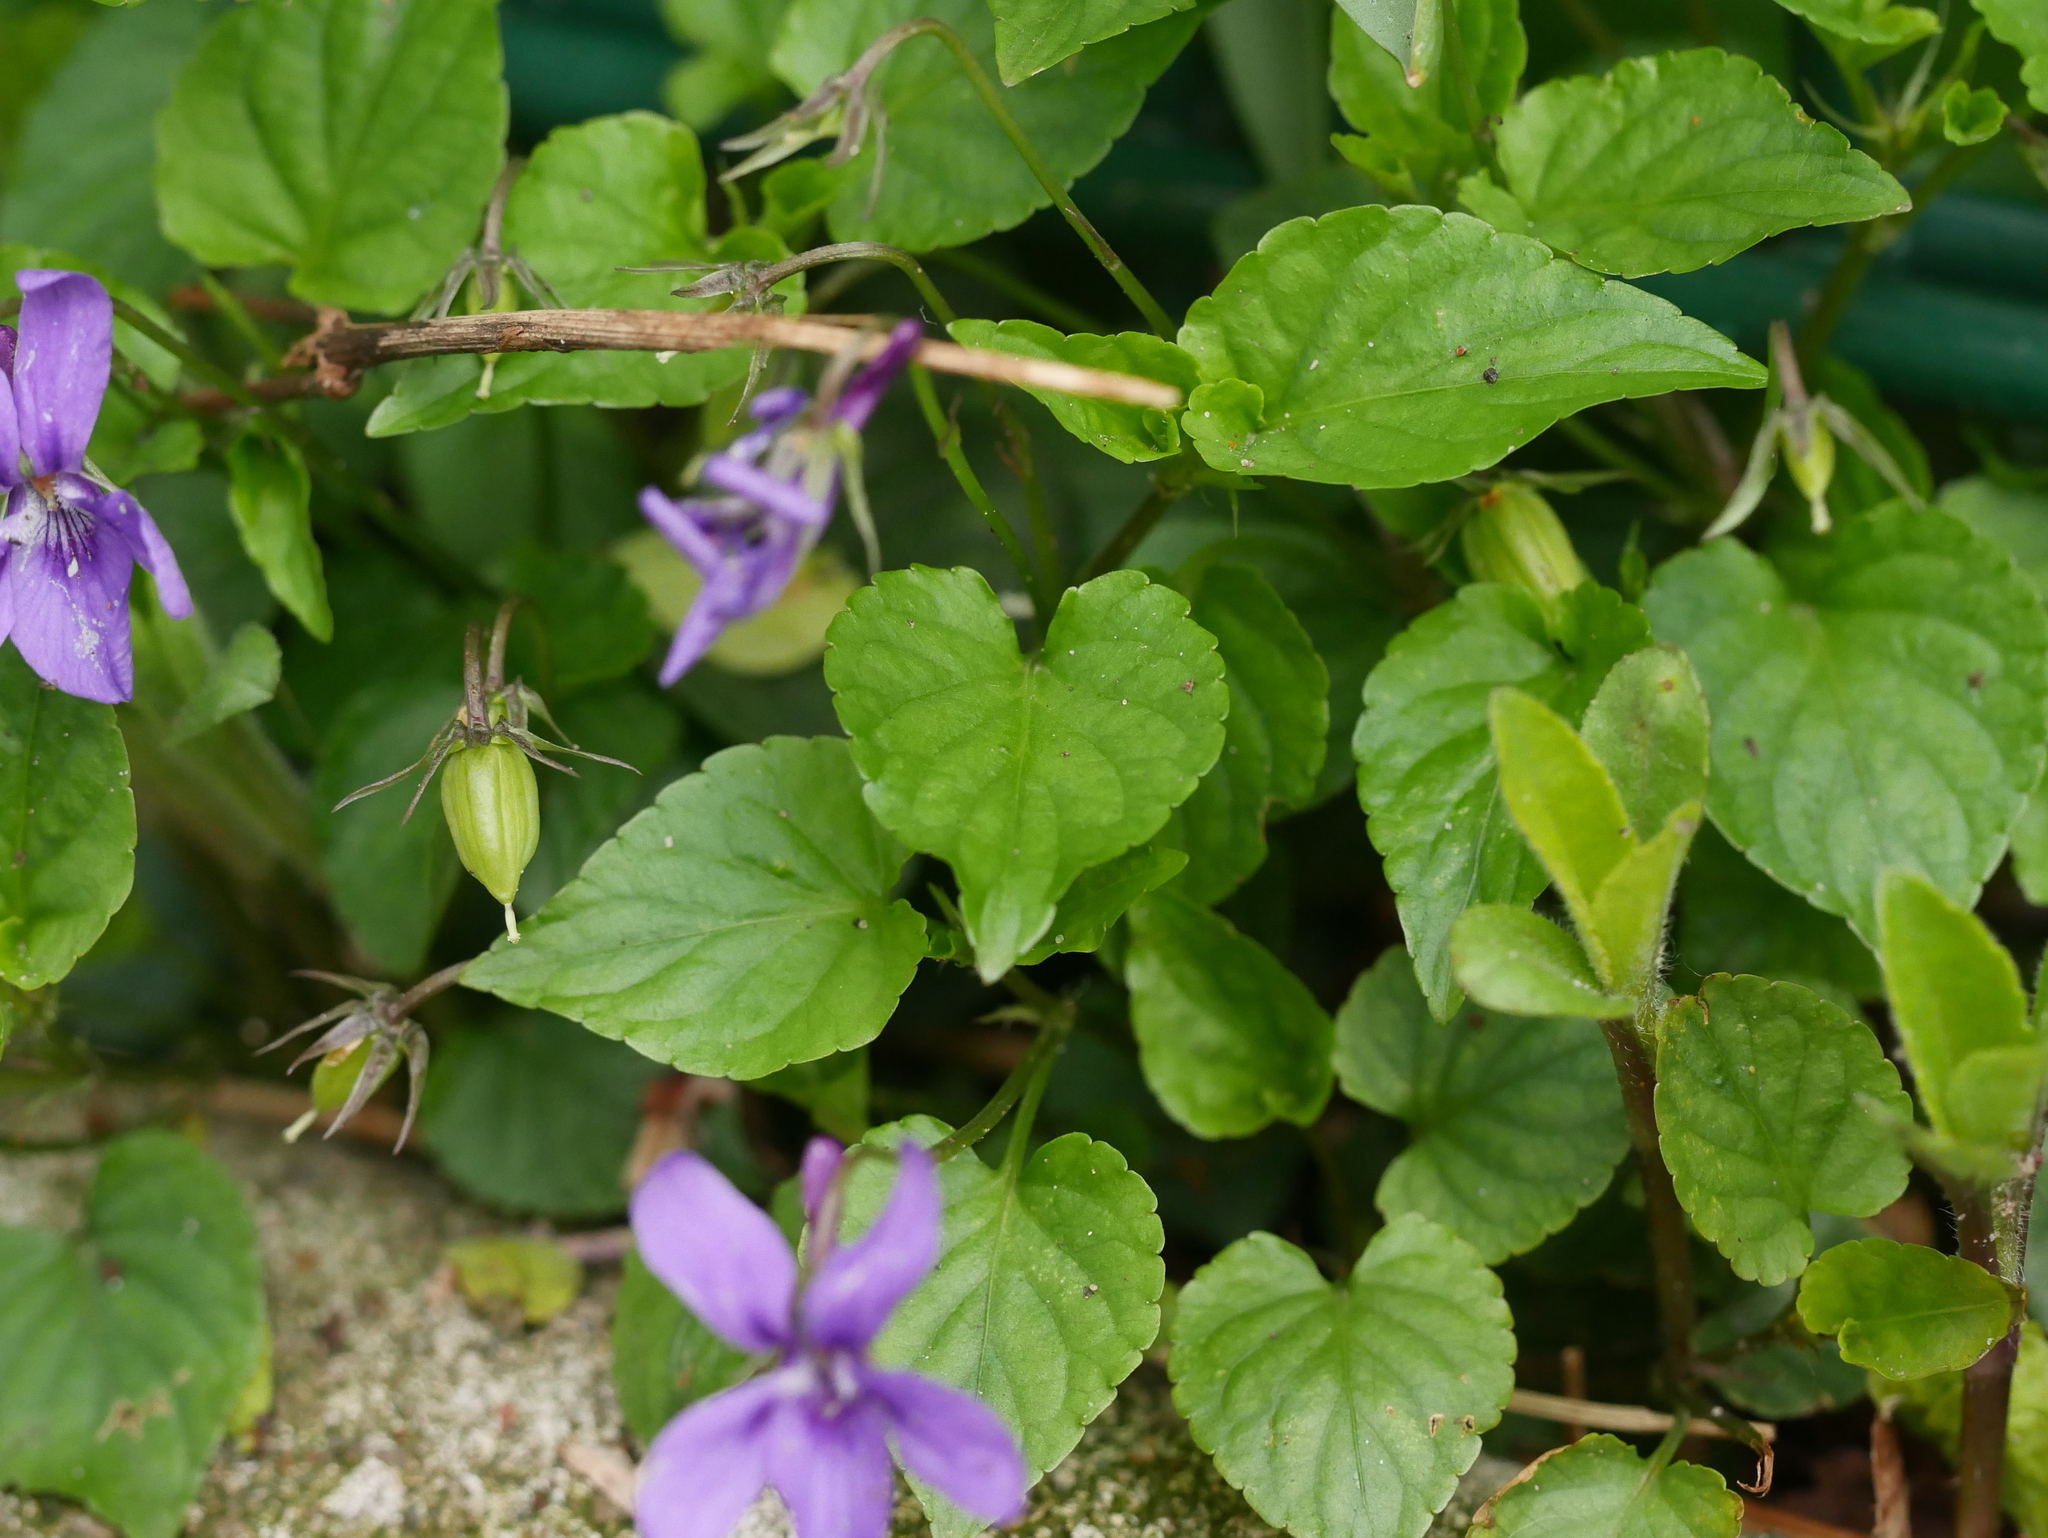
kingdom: Plantae
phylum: Tracheophyta
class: Magnoliopsida
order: Malpighiales
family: Violaceae
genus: Viola
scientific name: Viola reichenbachiana
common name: Early dog-violet
